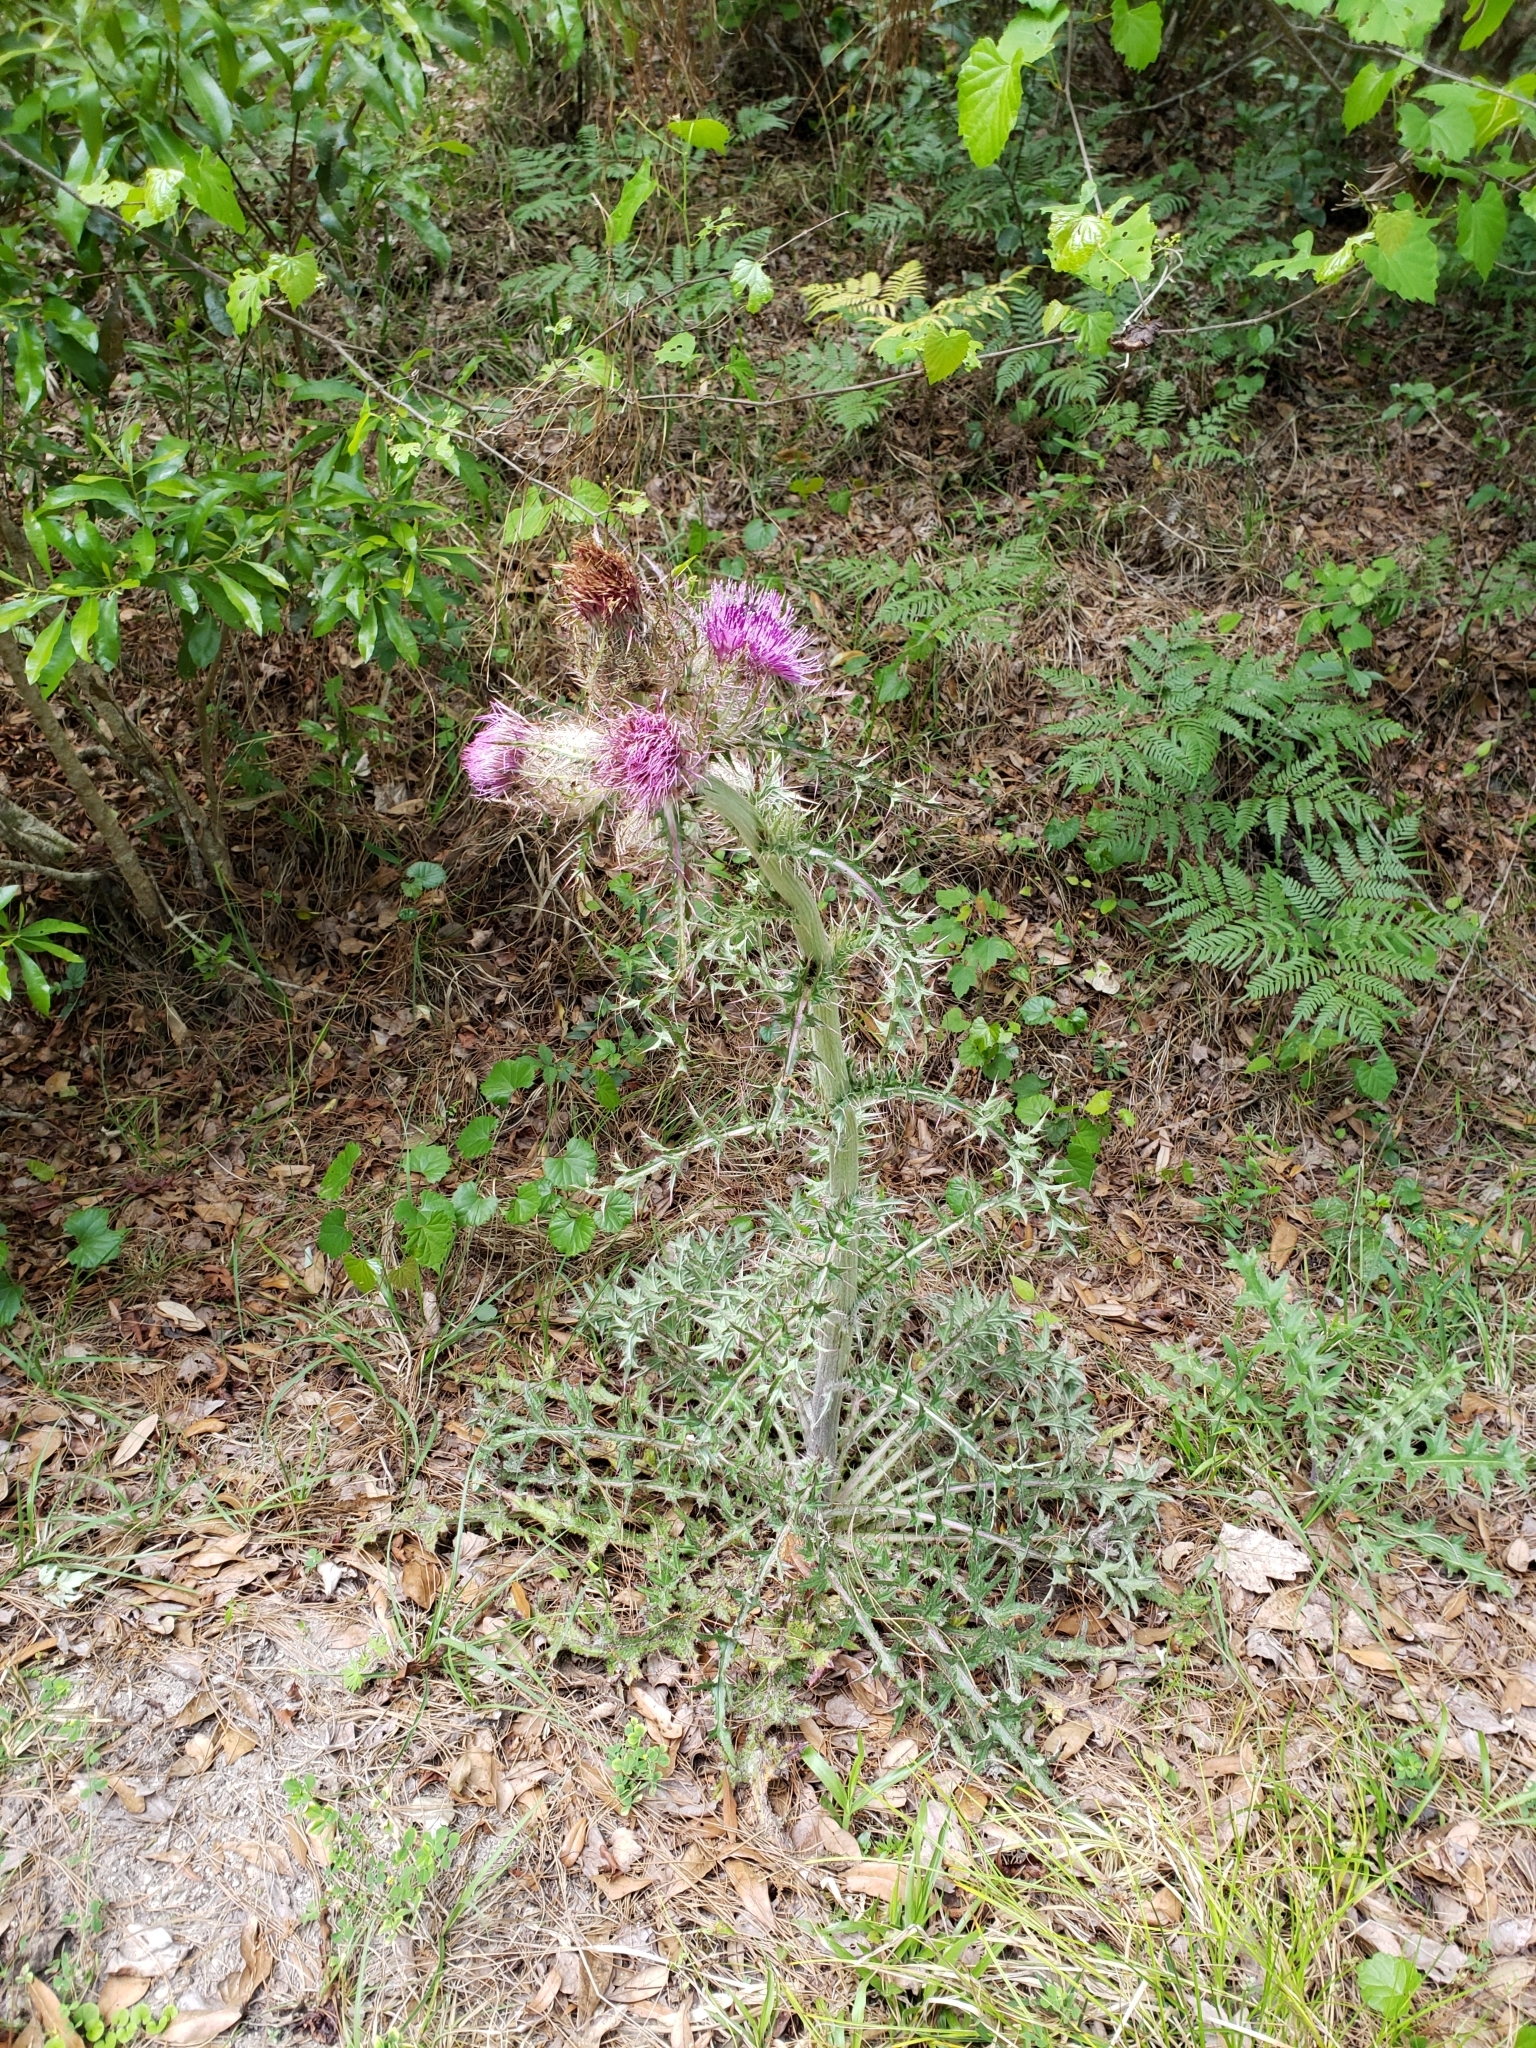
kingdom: Plantae
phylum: Tracheophyta
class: Magnoliopsida
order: Asterales
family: Asteraceae
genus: Cirsium
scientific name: Cirsium horridulum
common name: Bristly thistle
